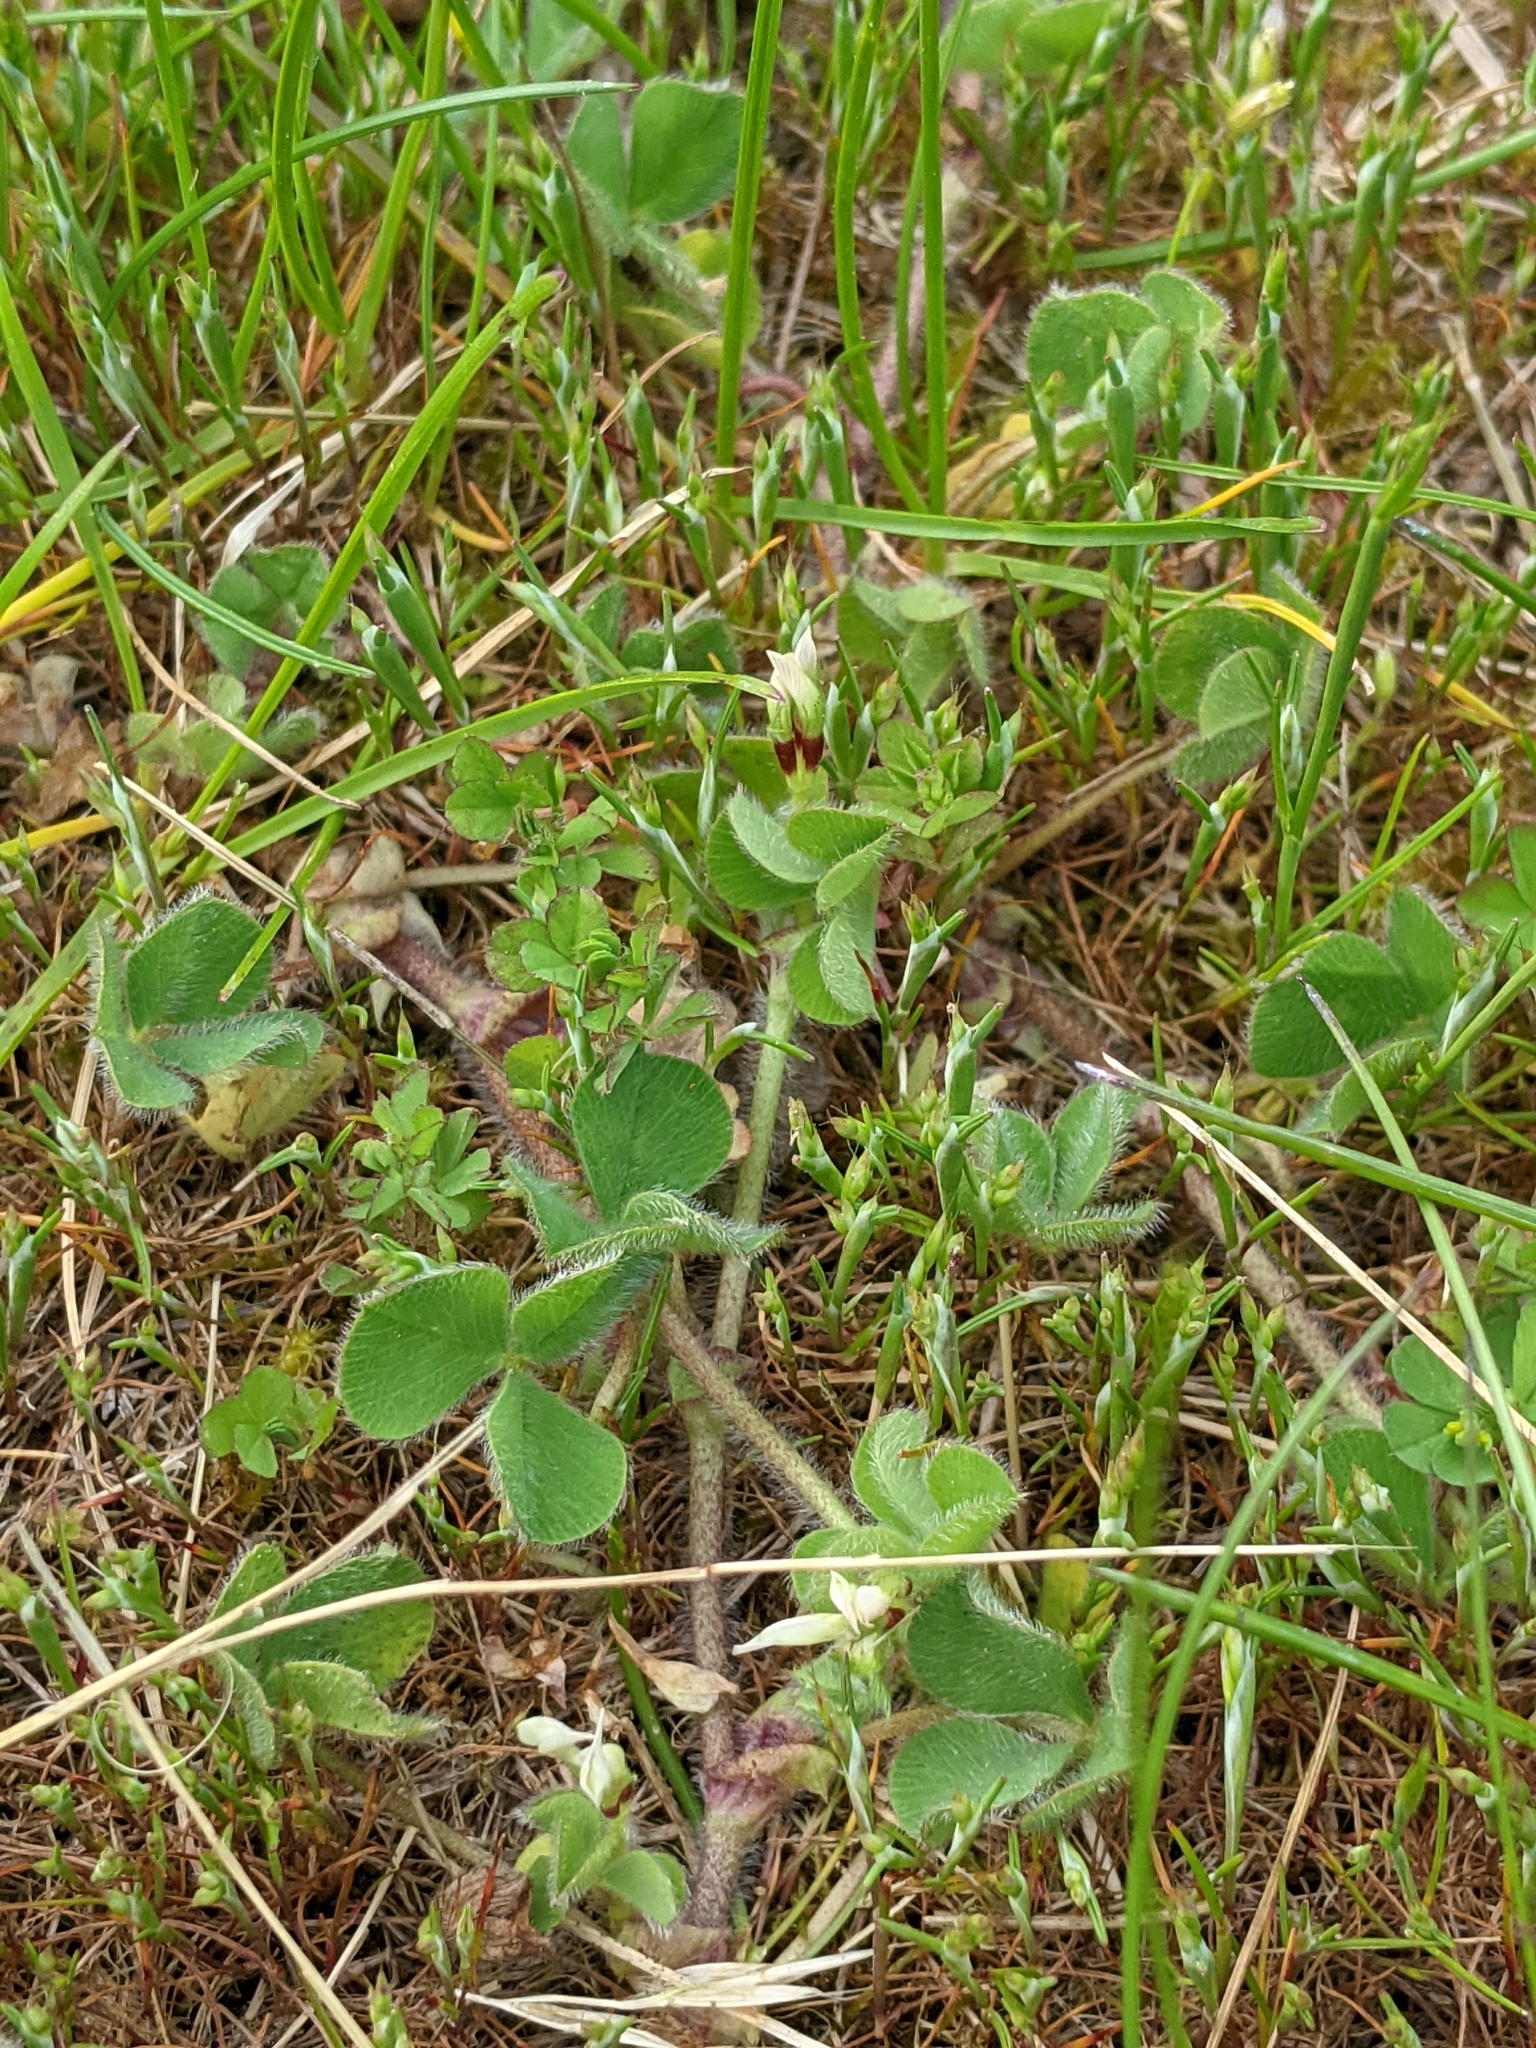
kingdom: Plantae
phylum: Tracheophyta
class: Magnoliopsida
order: Fabales
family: Fabaceae
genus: Trifolium
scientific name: Trifolium subterraneum
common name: Subterranean clover
